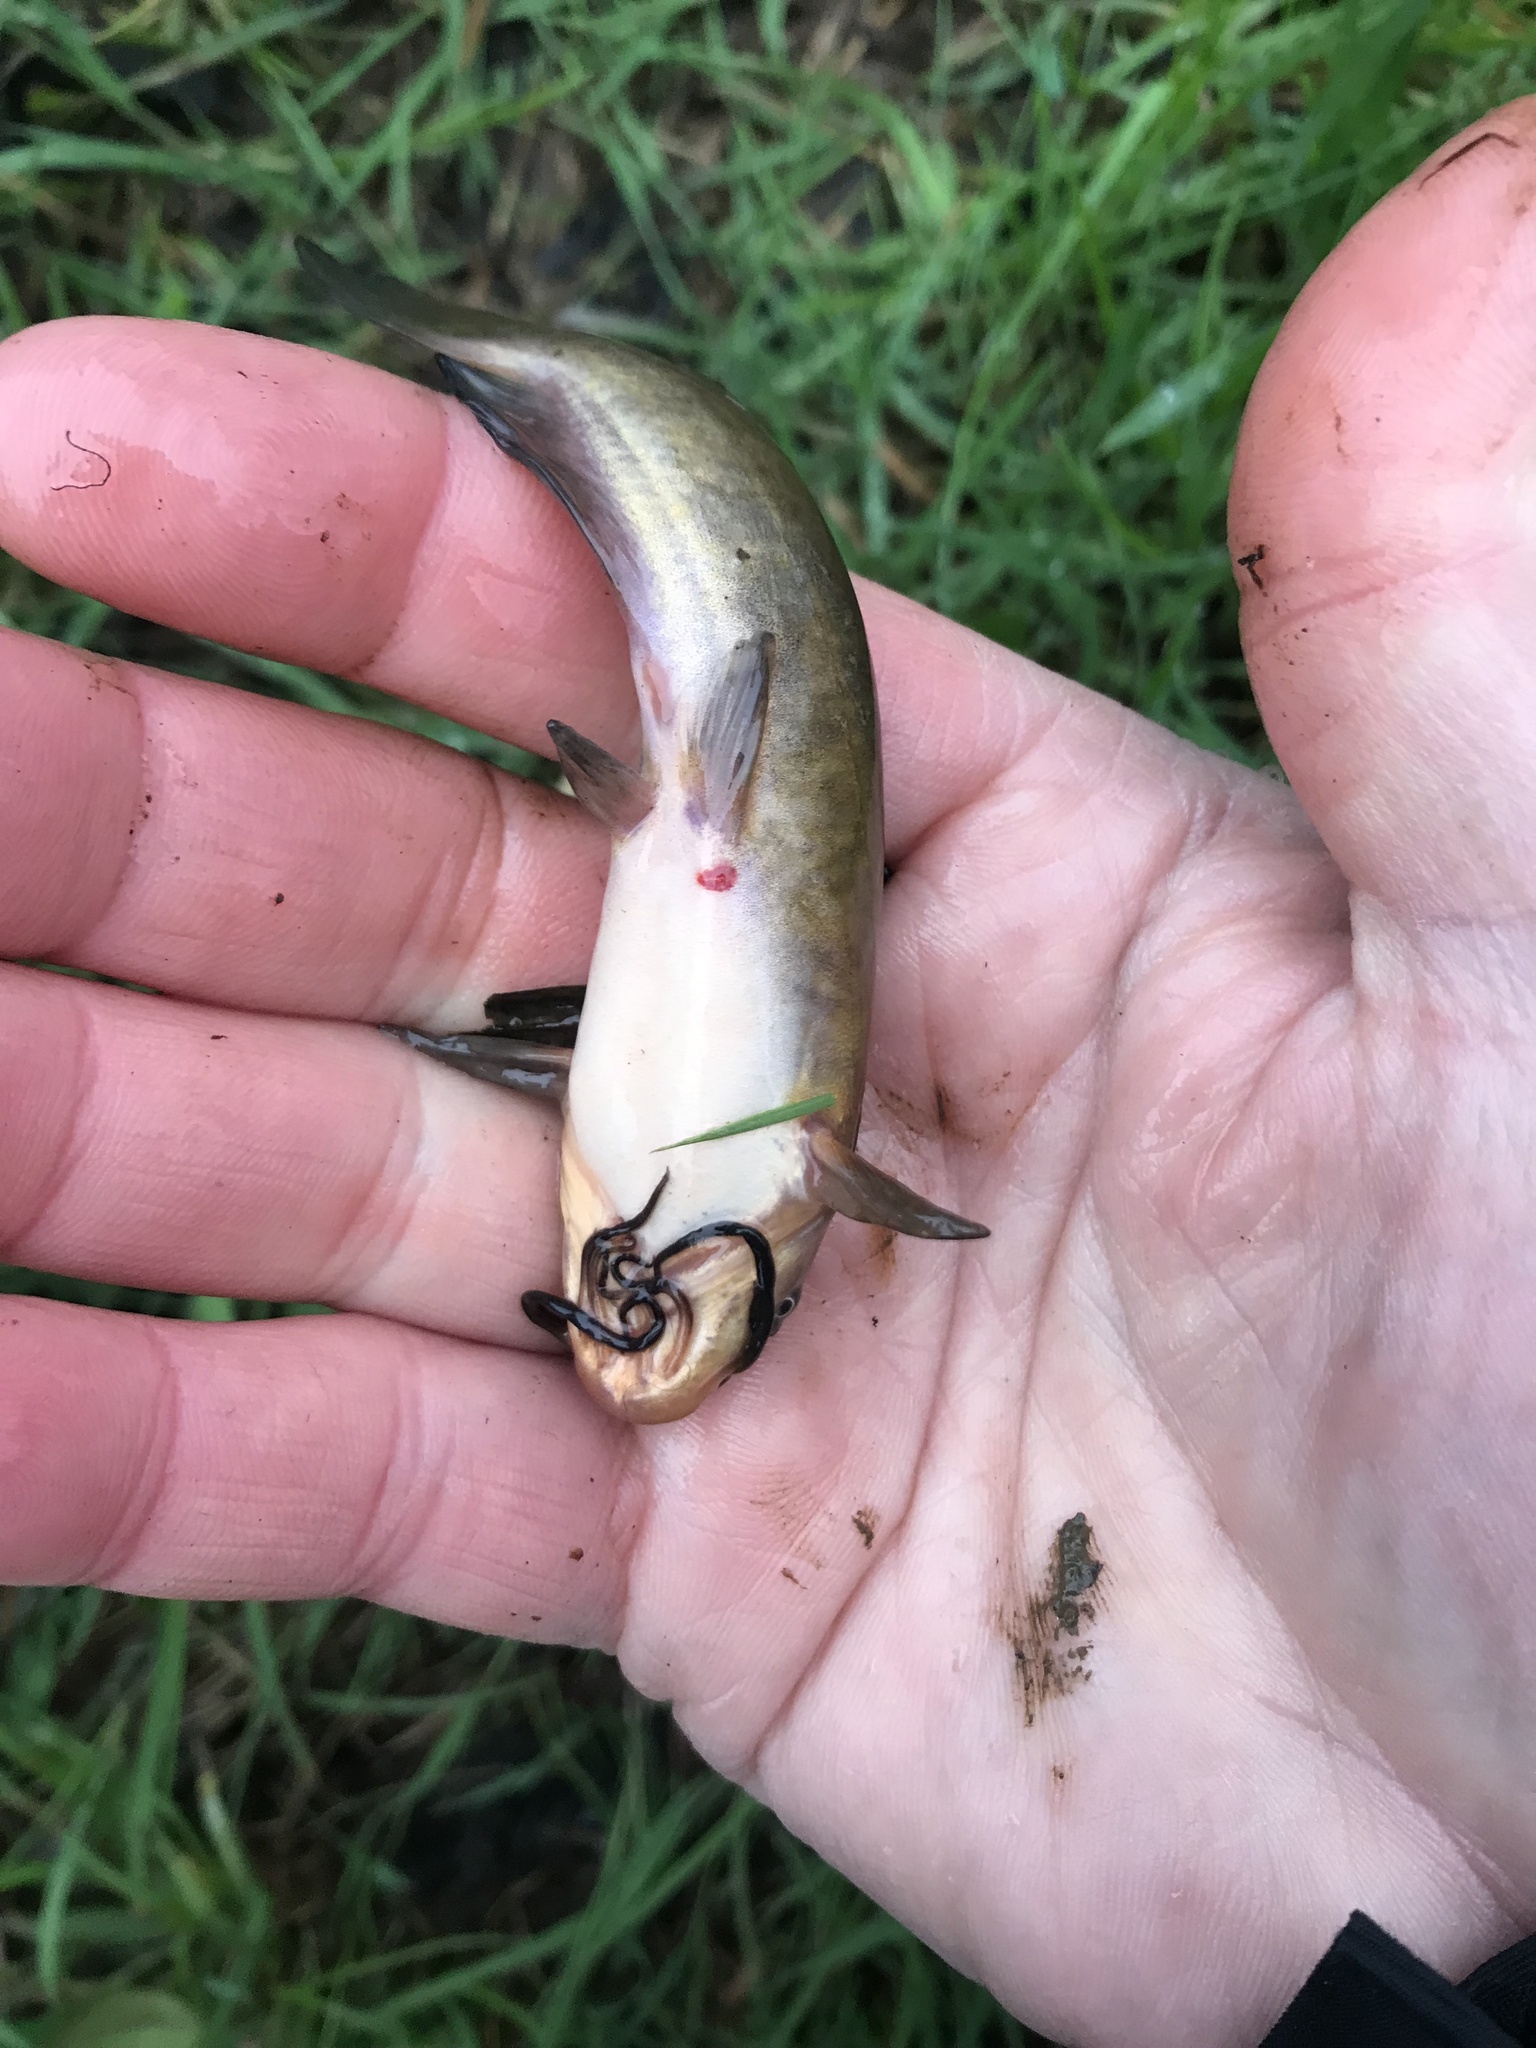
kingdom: Animalia
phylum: Chordata
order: Siluriformes
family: Ictaluridae
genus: Ameiurus
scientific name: Ameiurus nebulosus
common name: Brown bullhead
